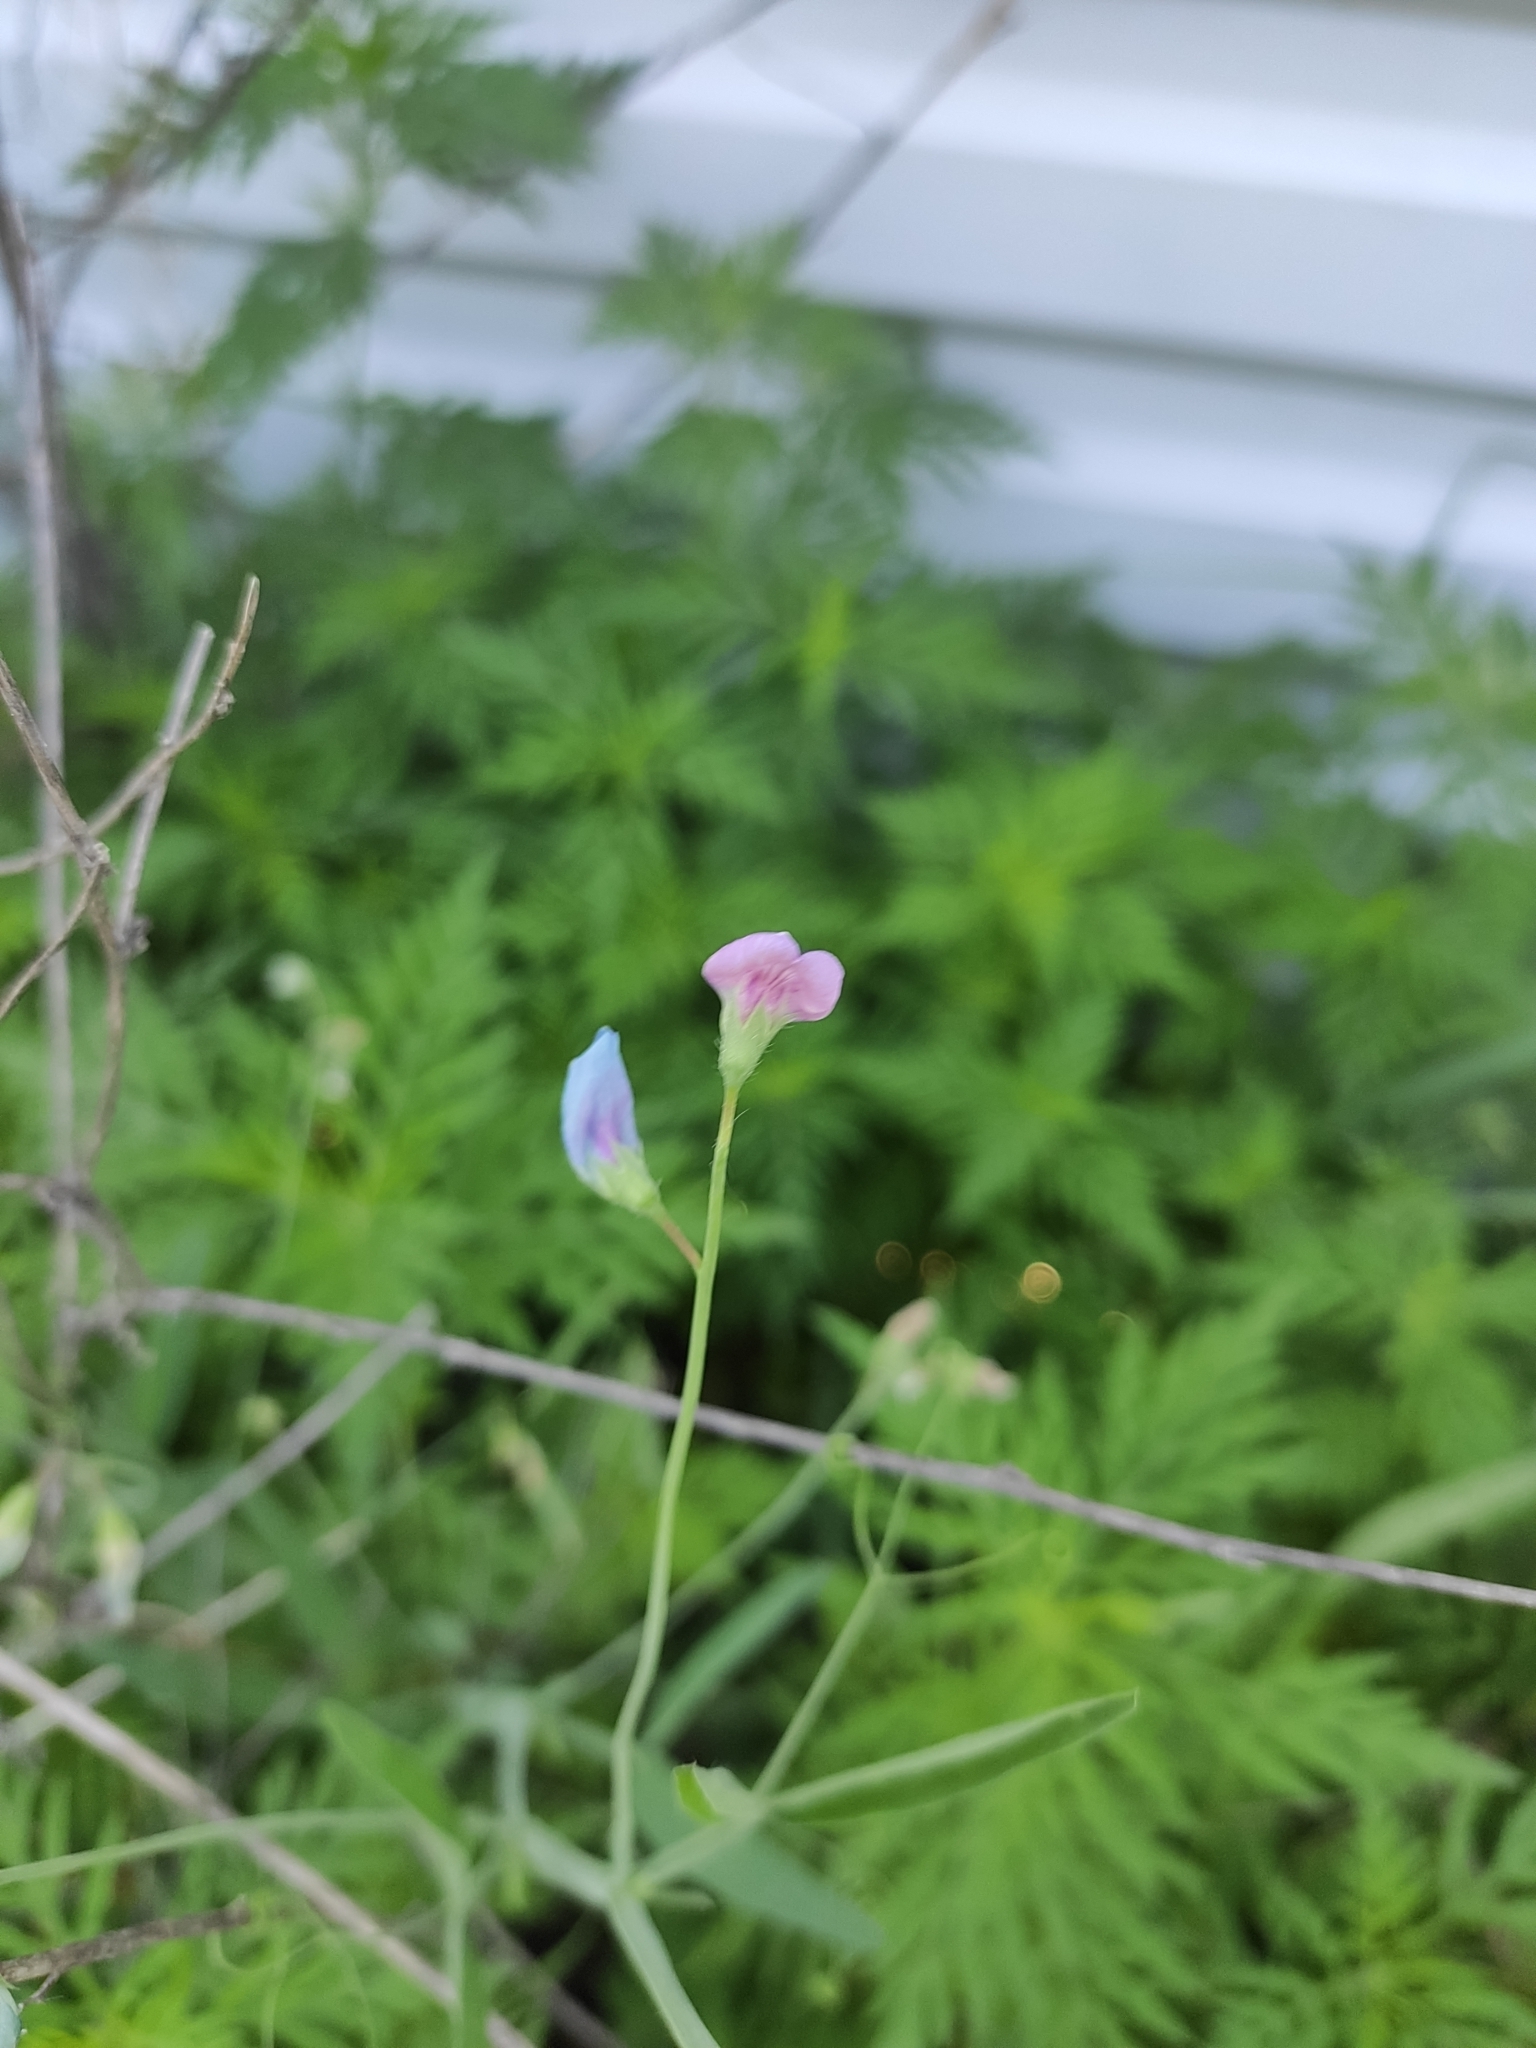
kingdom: Plantae
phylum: Tracheophyta
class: Magnoliopsida
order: Fabales
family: Fabaceae
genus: Lathyrus
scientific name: Lathyrus hirsutus
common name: Hairy vetchling
